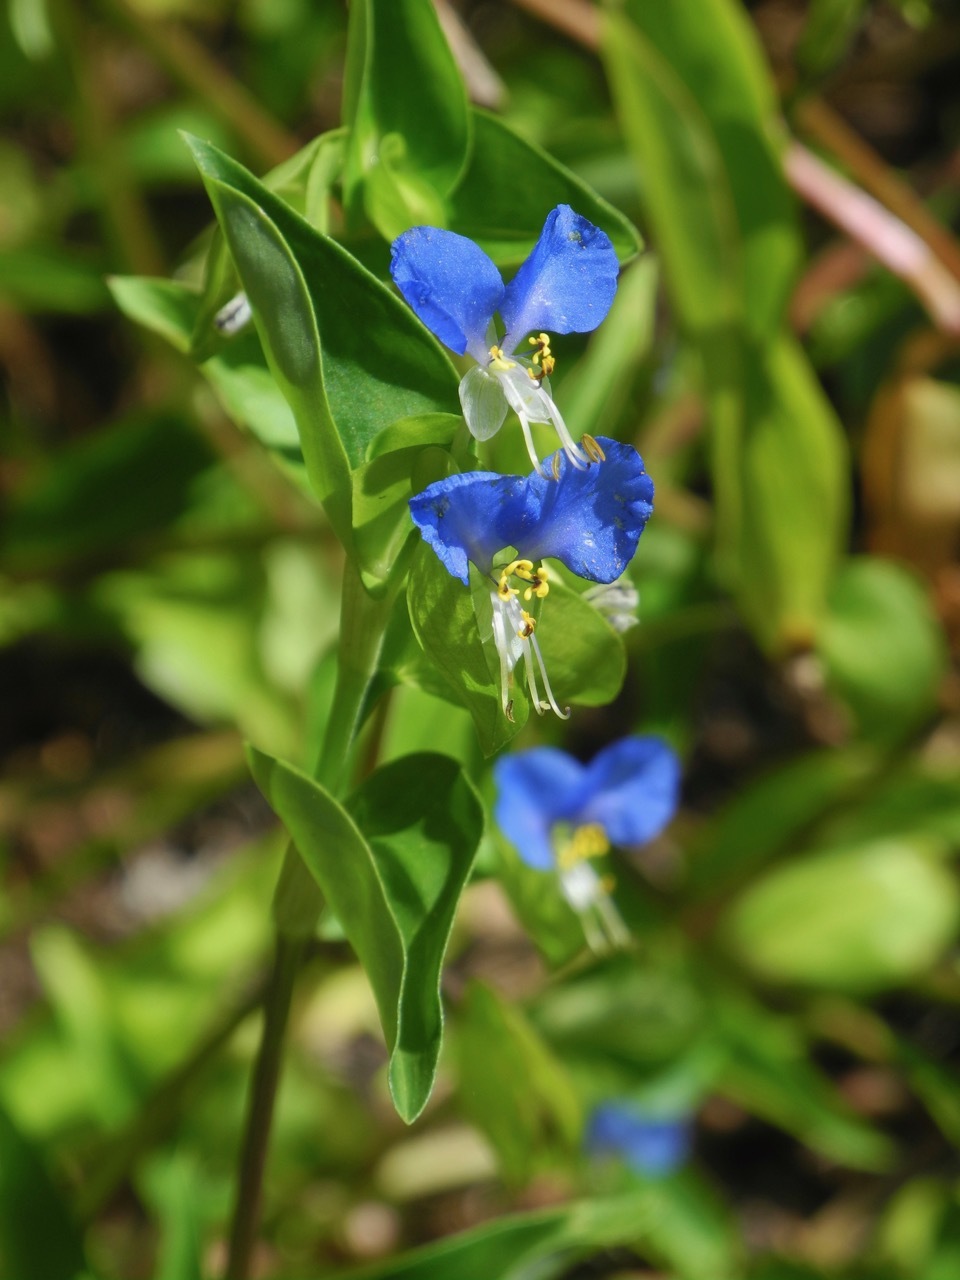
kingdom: Plantae
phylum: Tracheophyta
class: Liliopsida
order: Commelinales
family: Commelinaceae
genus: Commelina
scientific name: Commelina communis
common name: Asiatic dayflower
